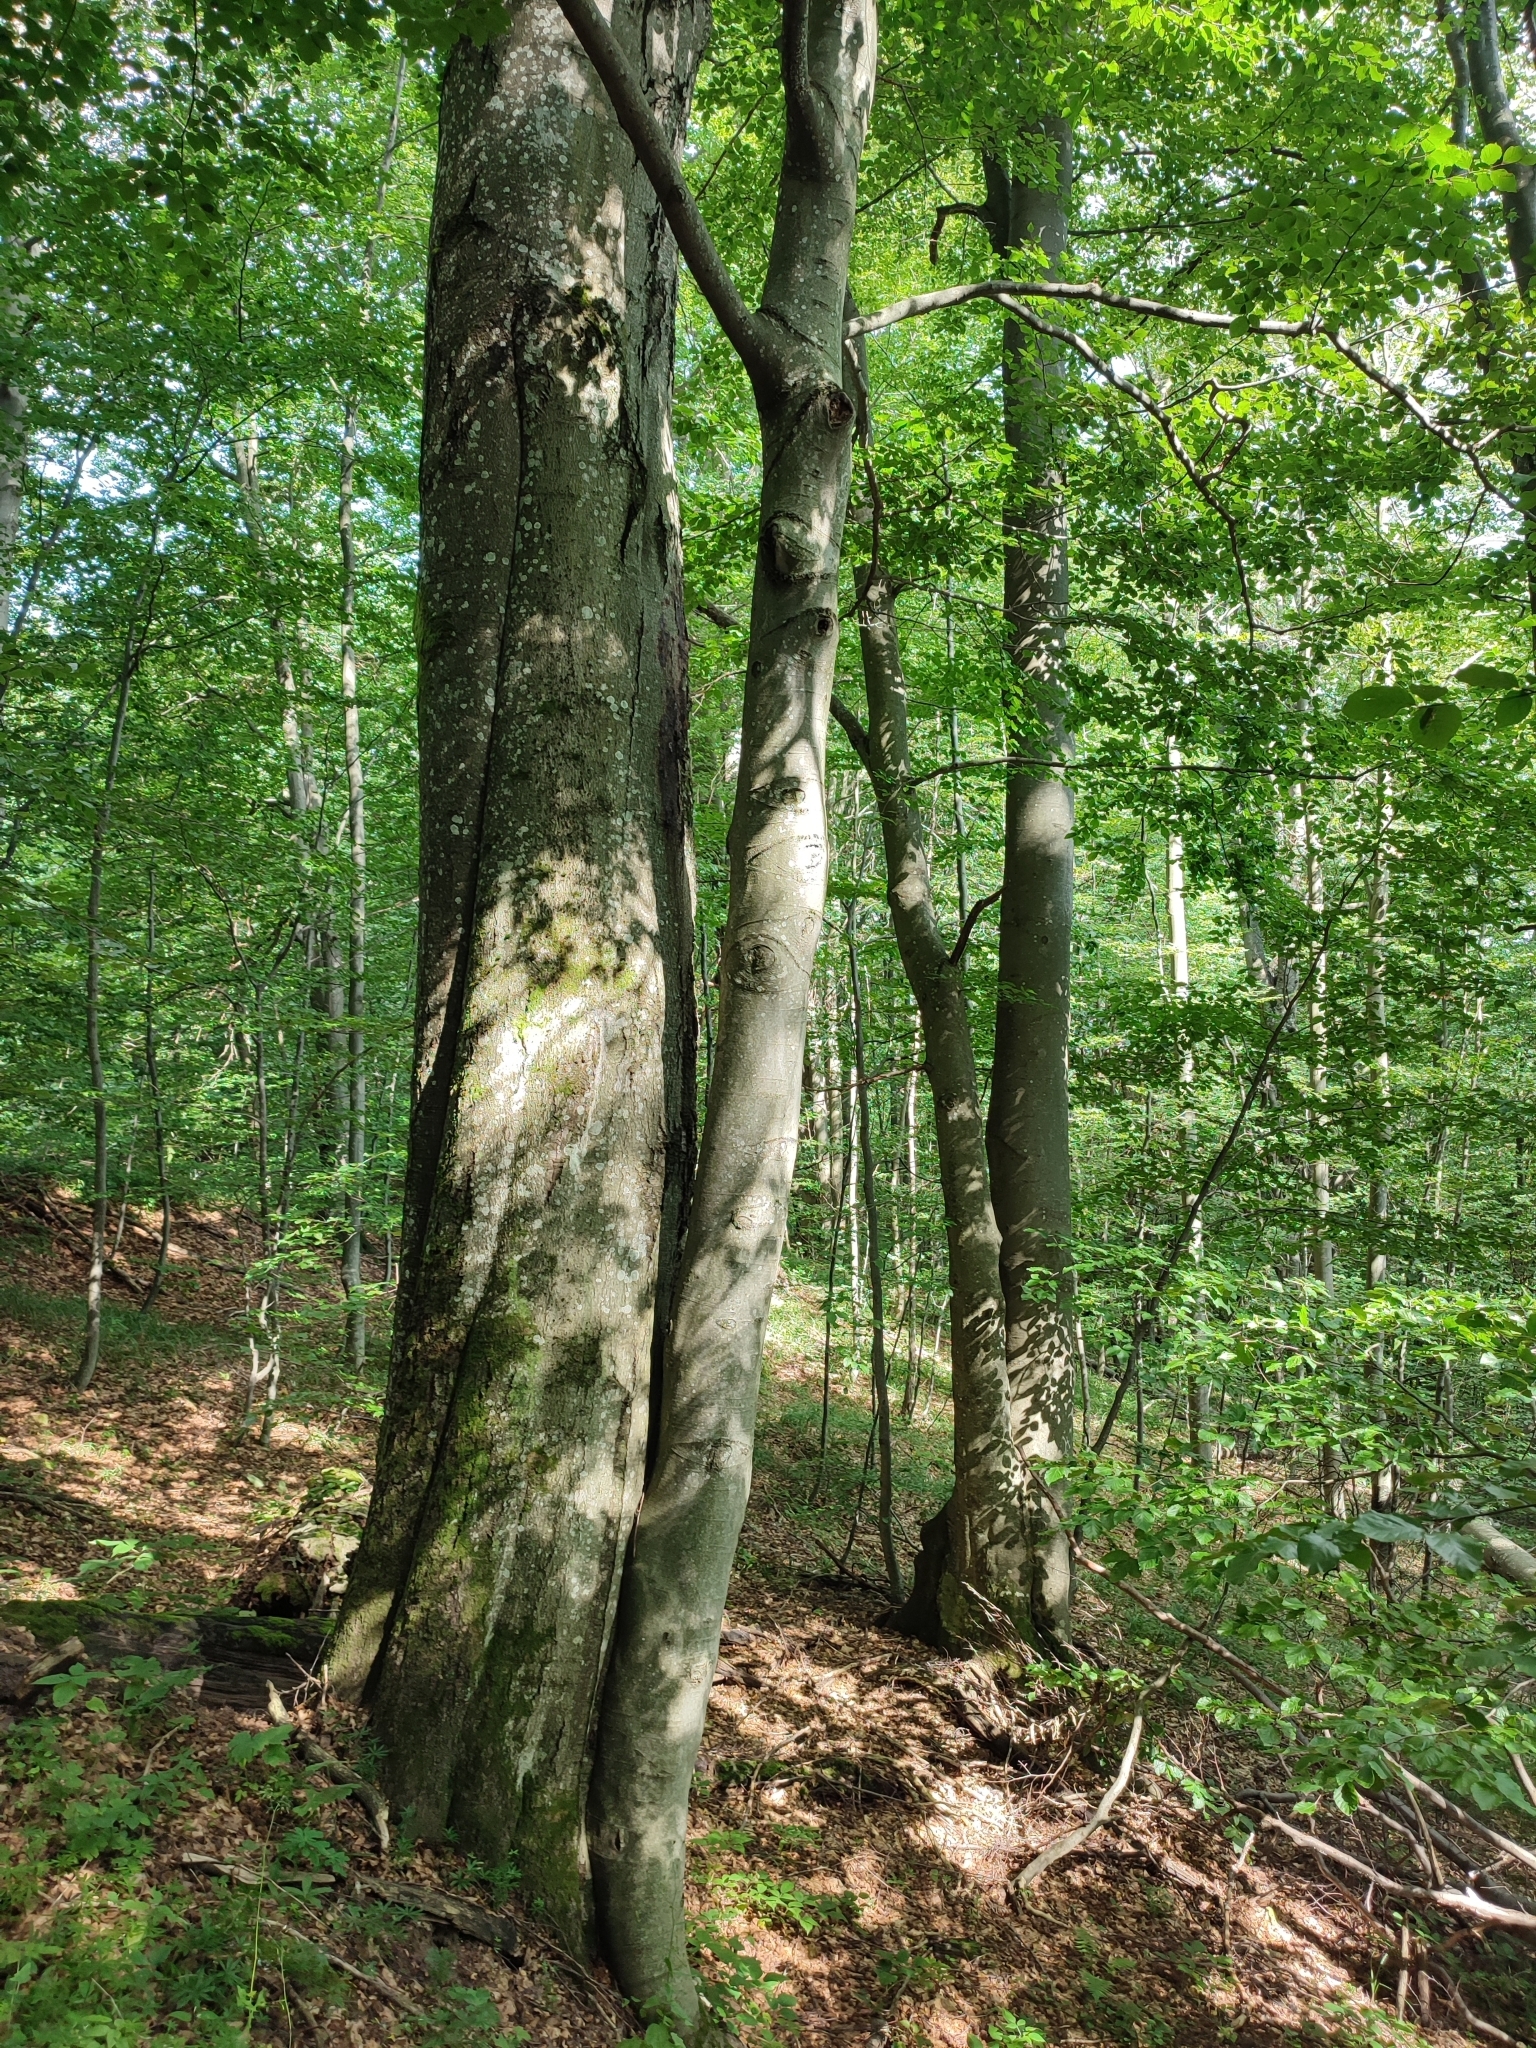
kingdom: Plantae
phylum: Tracheophyta
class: Magnoliopsida
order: Fagales
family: Fagaceae
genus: Fagus
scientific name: Fagus sylvatica
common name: Beech
